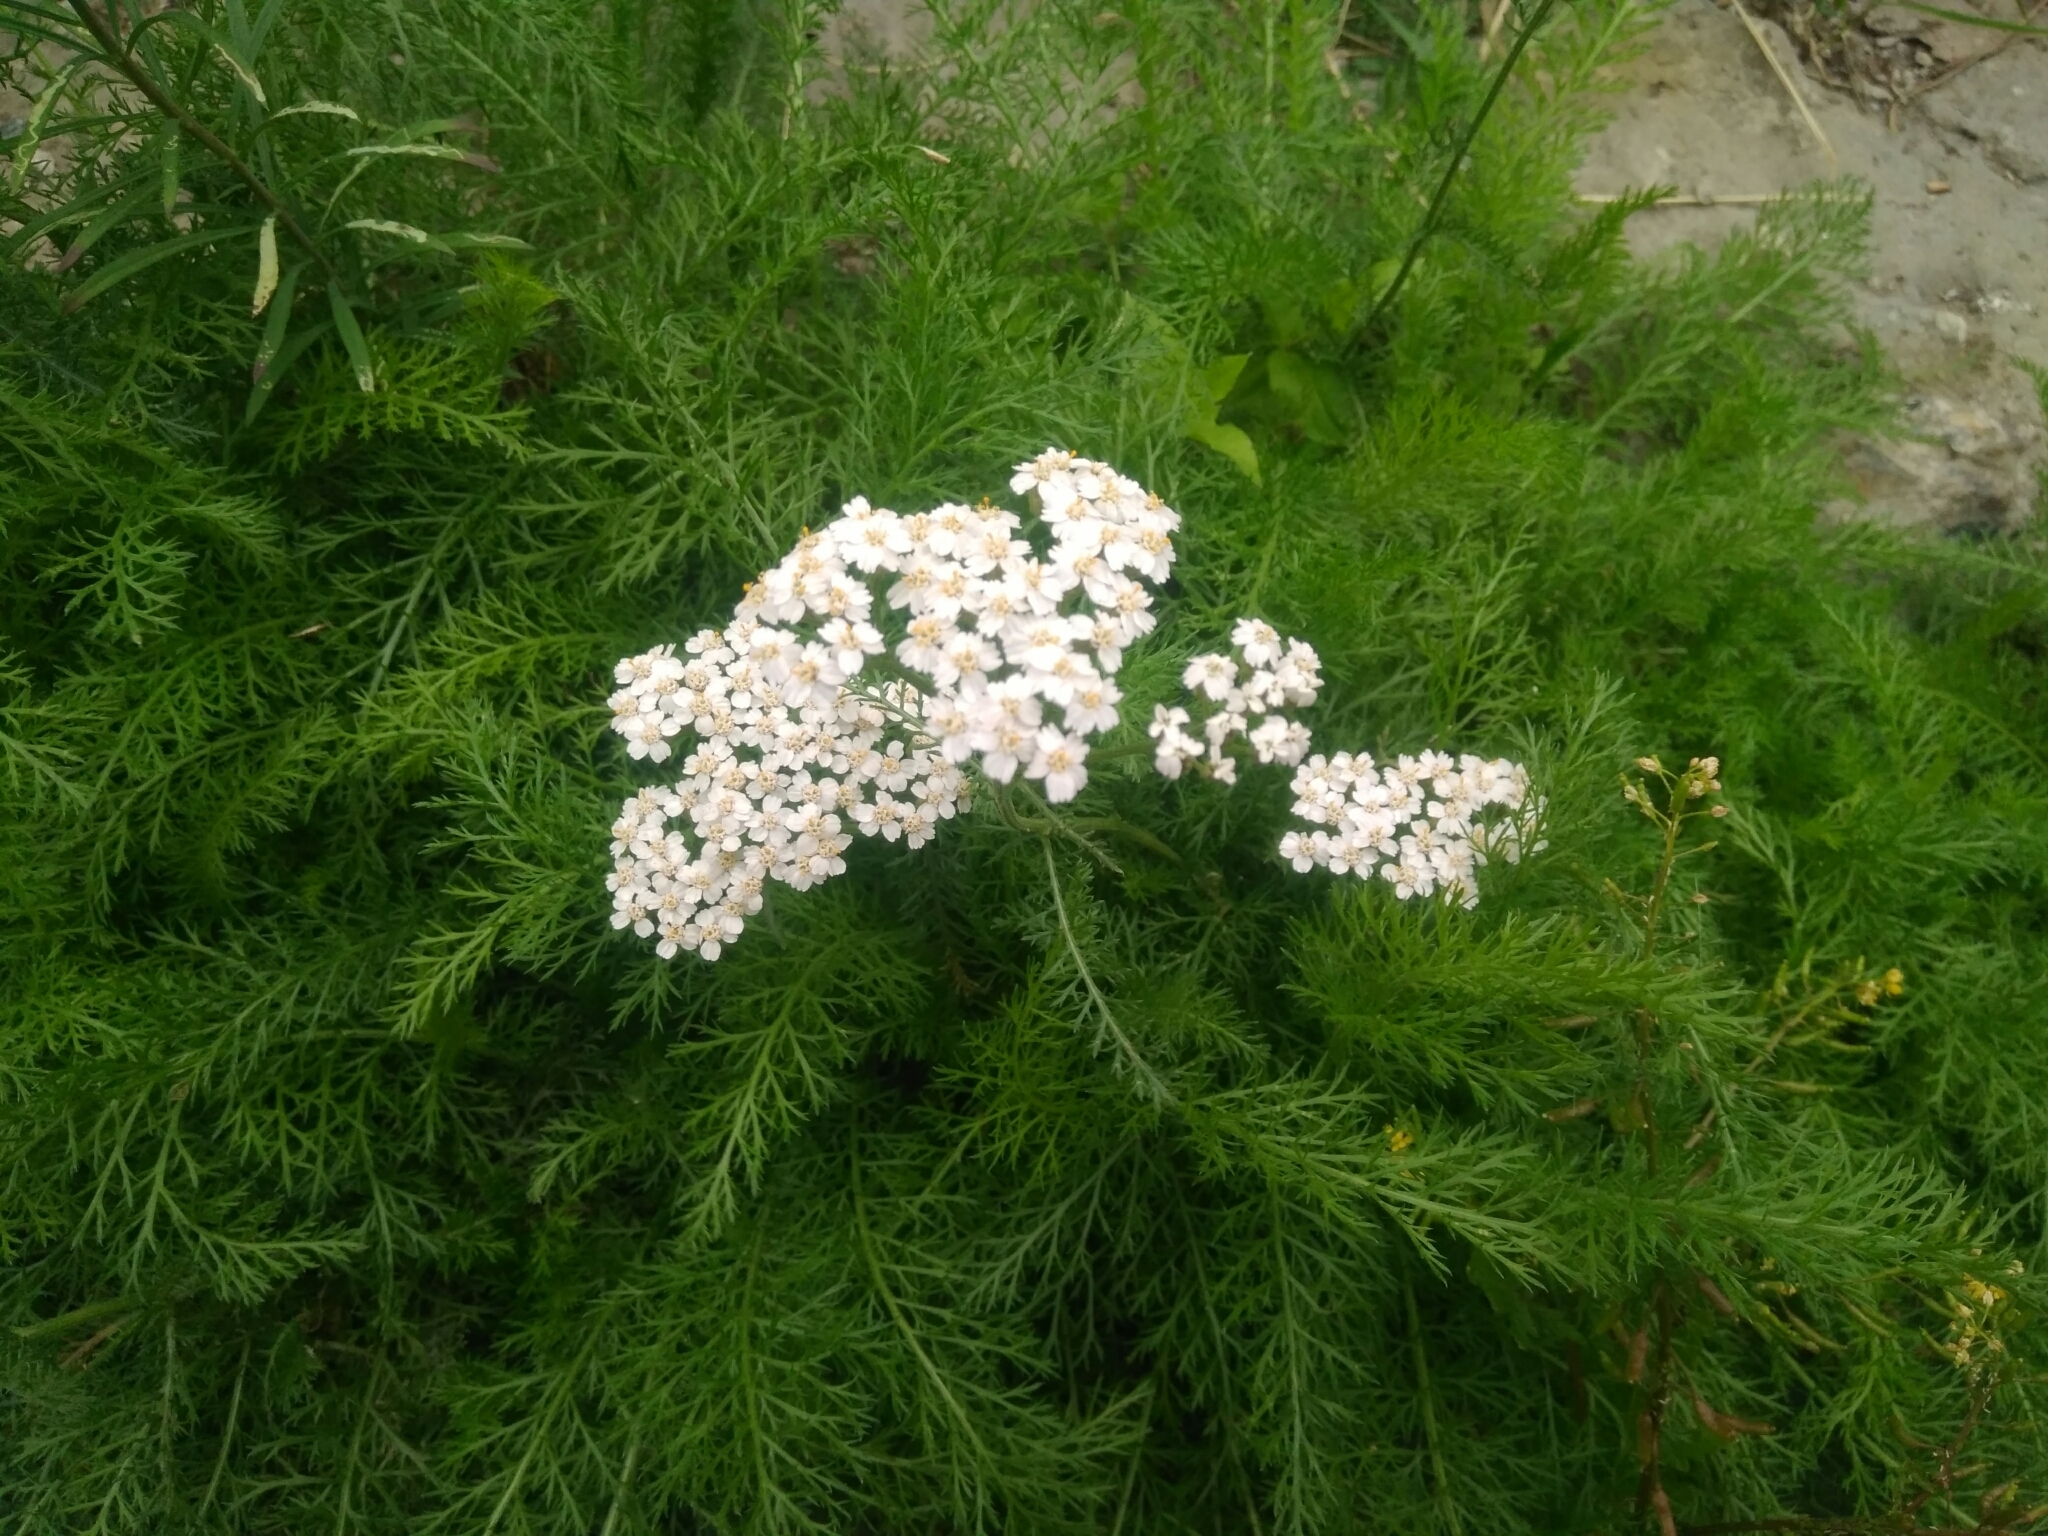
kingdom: Plantae
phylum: Tracheophyta
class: Magnoliopsida
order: Asterales
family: Asteraceae
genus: Achillea
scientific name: Achillea millefolium
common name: Yarrow
